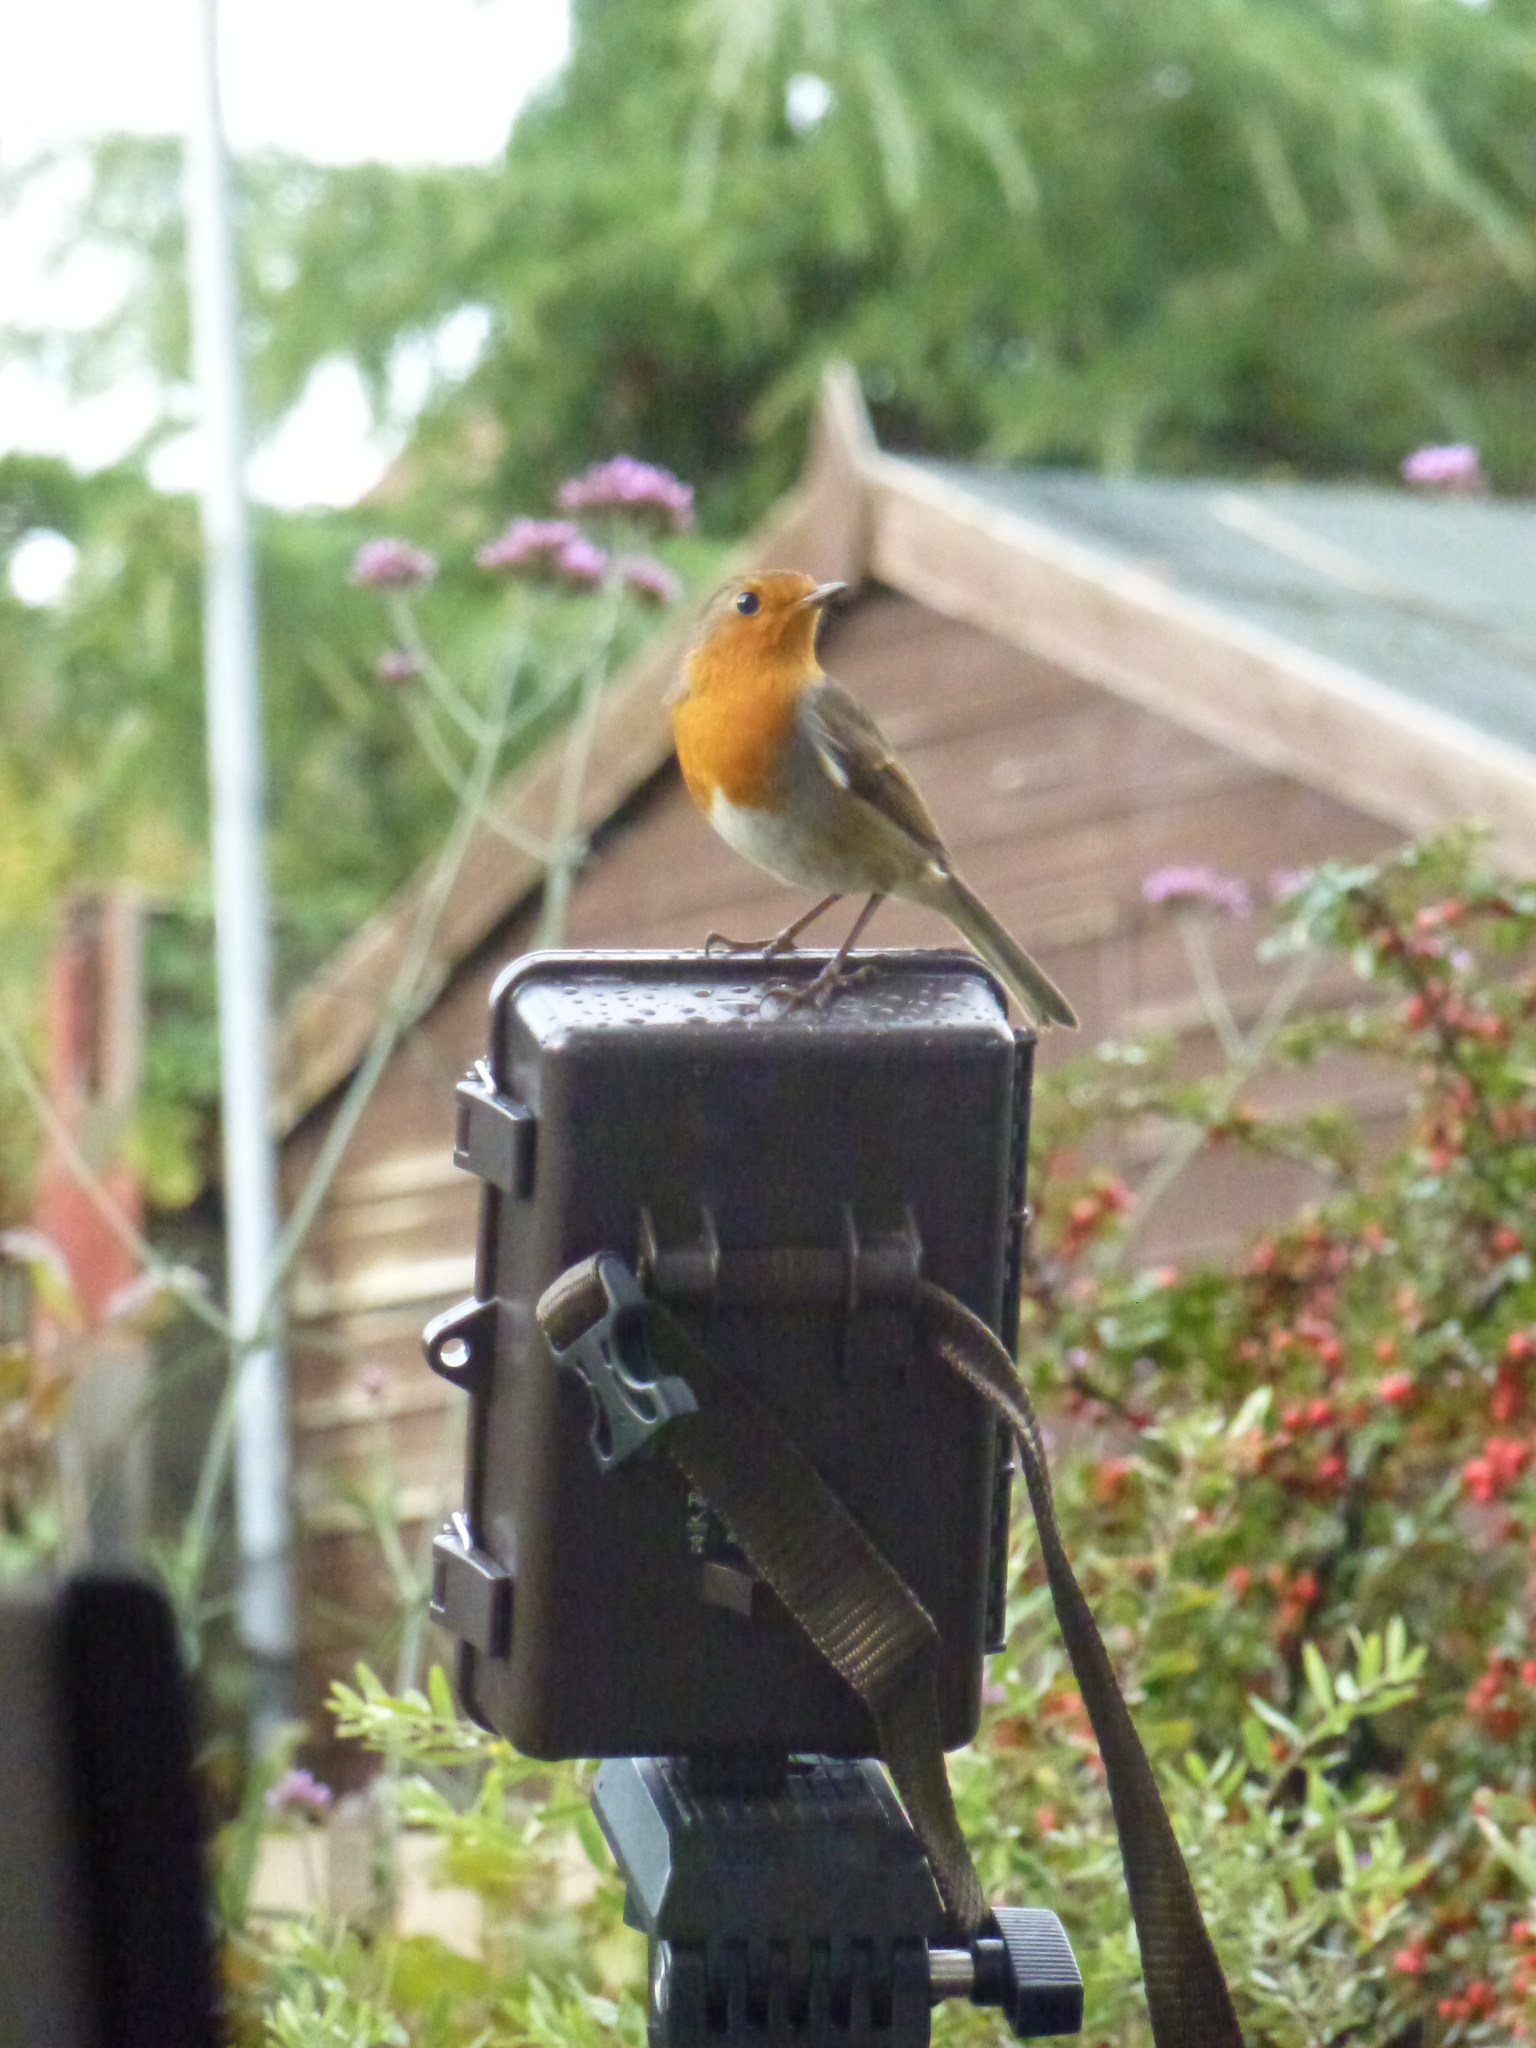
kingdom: Animalia
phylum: Chordata
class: Aves
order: Passeriformes
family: Muscicapidae
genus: Erithacus
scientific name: Erithacus rubecula
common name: European robin
